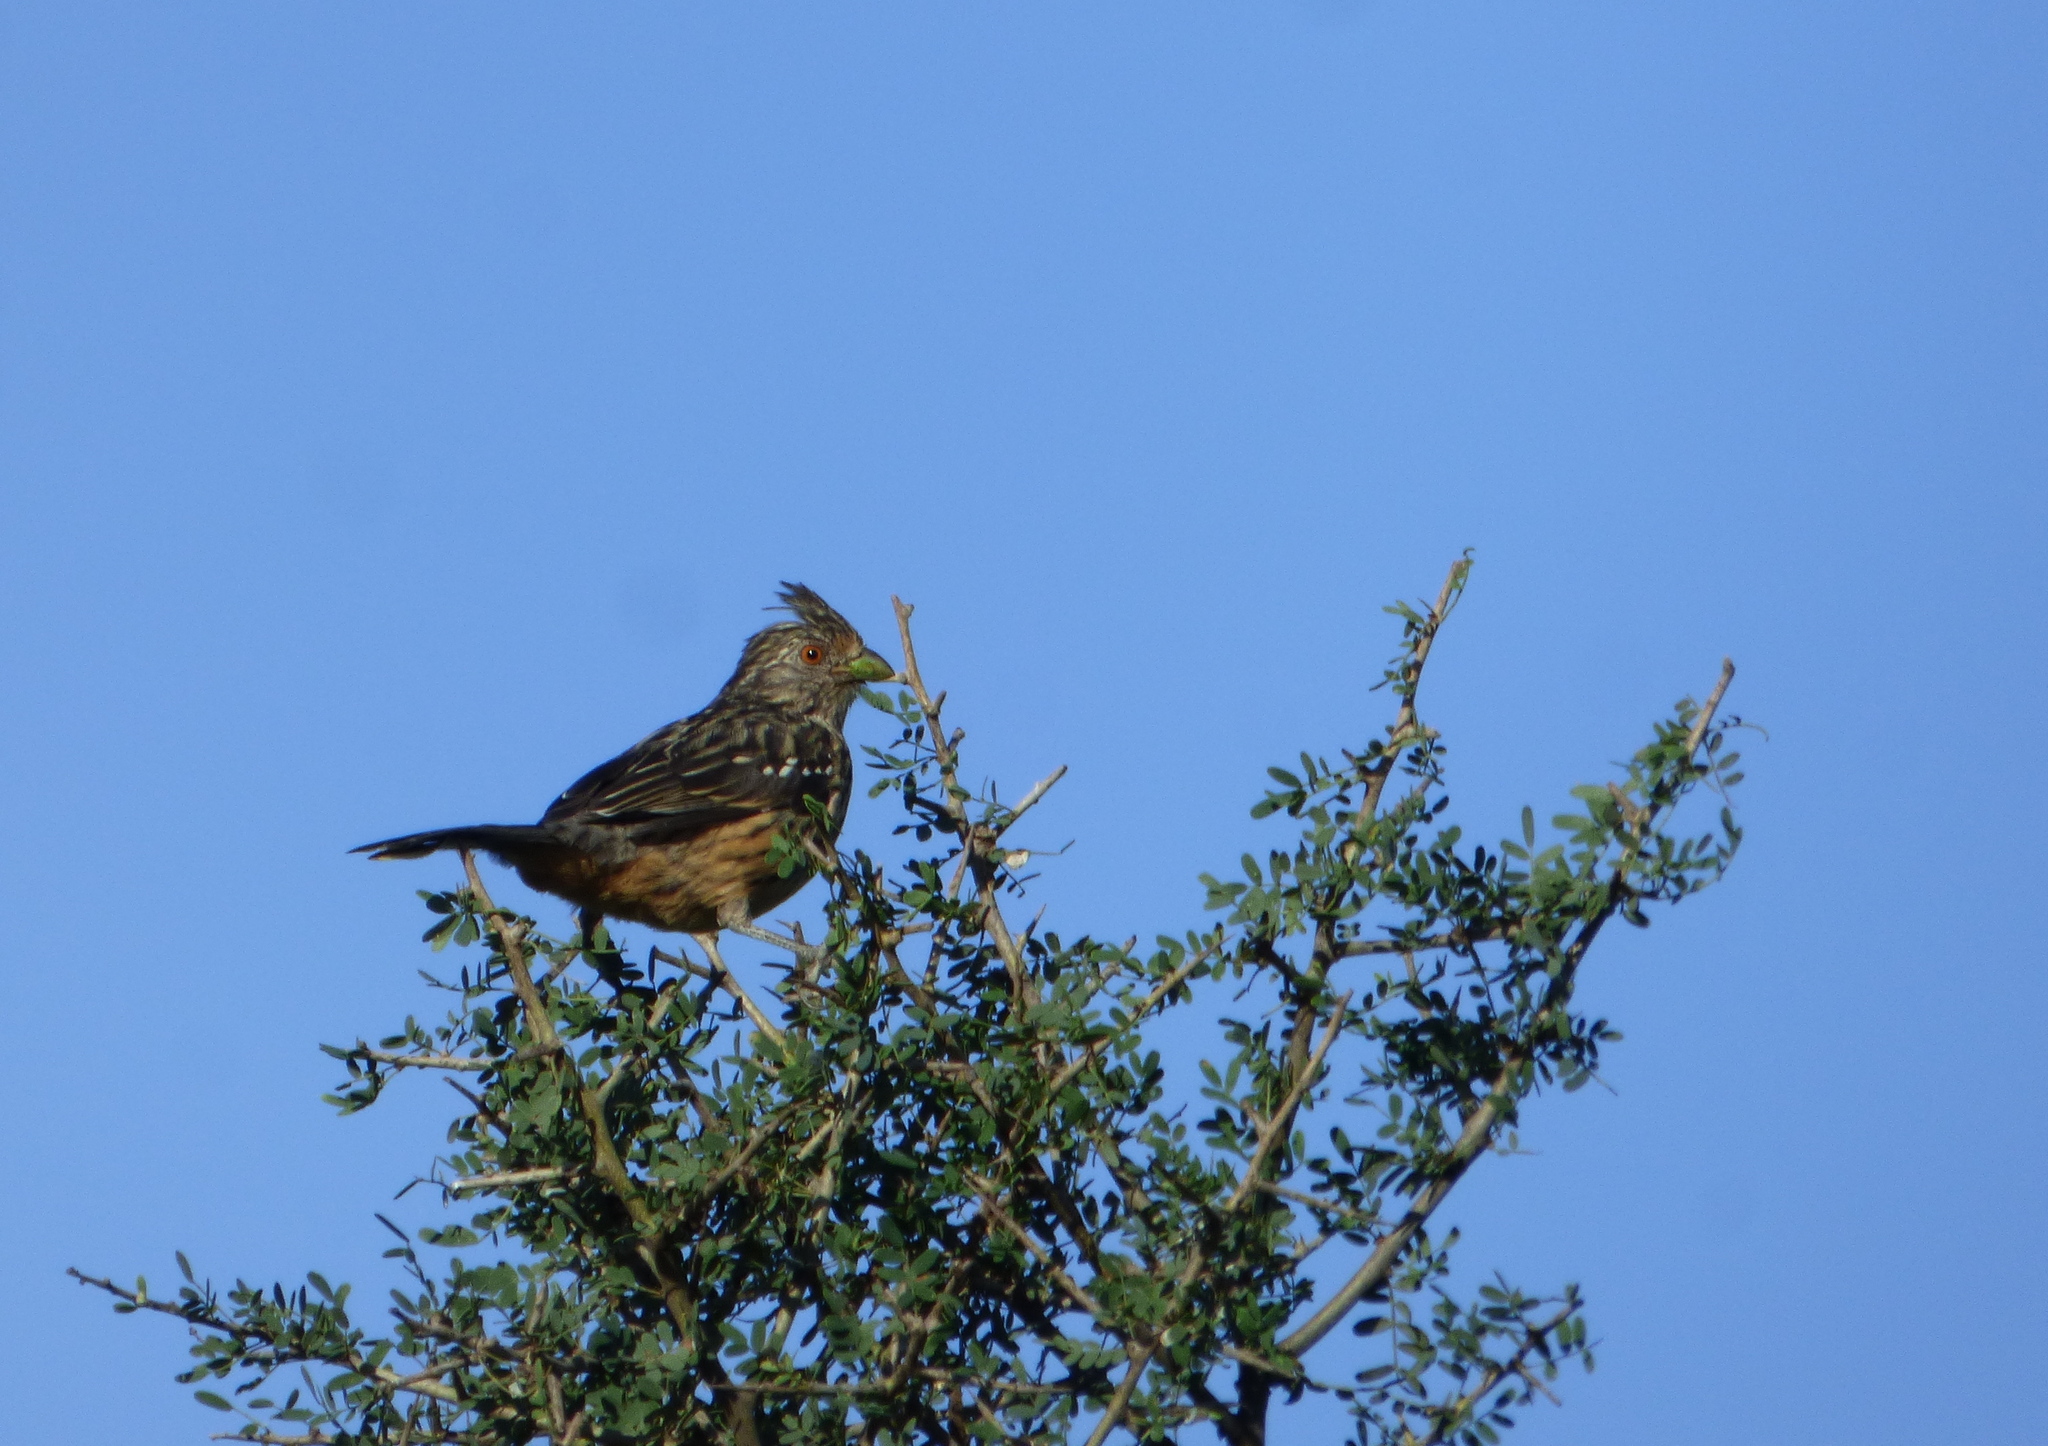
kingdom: Animalia
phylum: Chordata
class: Aves
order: Passeriformes
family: Cotingidae
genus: Phytotoma
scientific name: Phytotoma rutila
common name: White-tipped plantcutter
